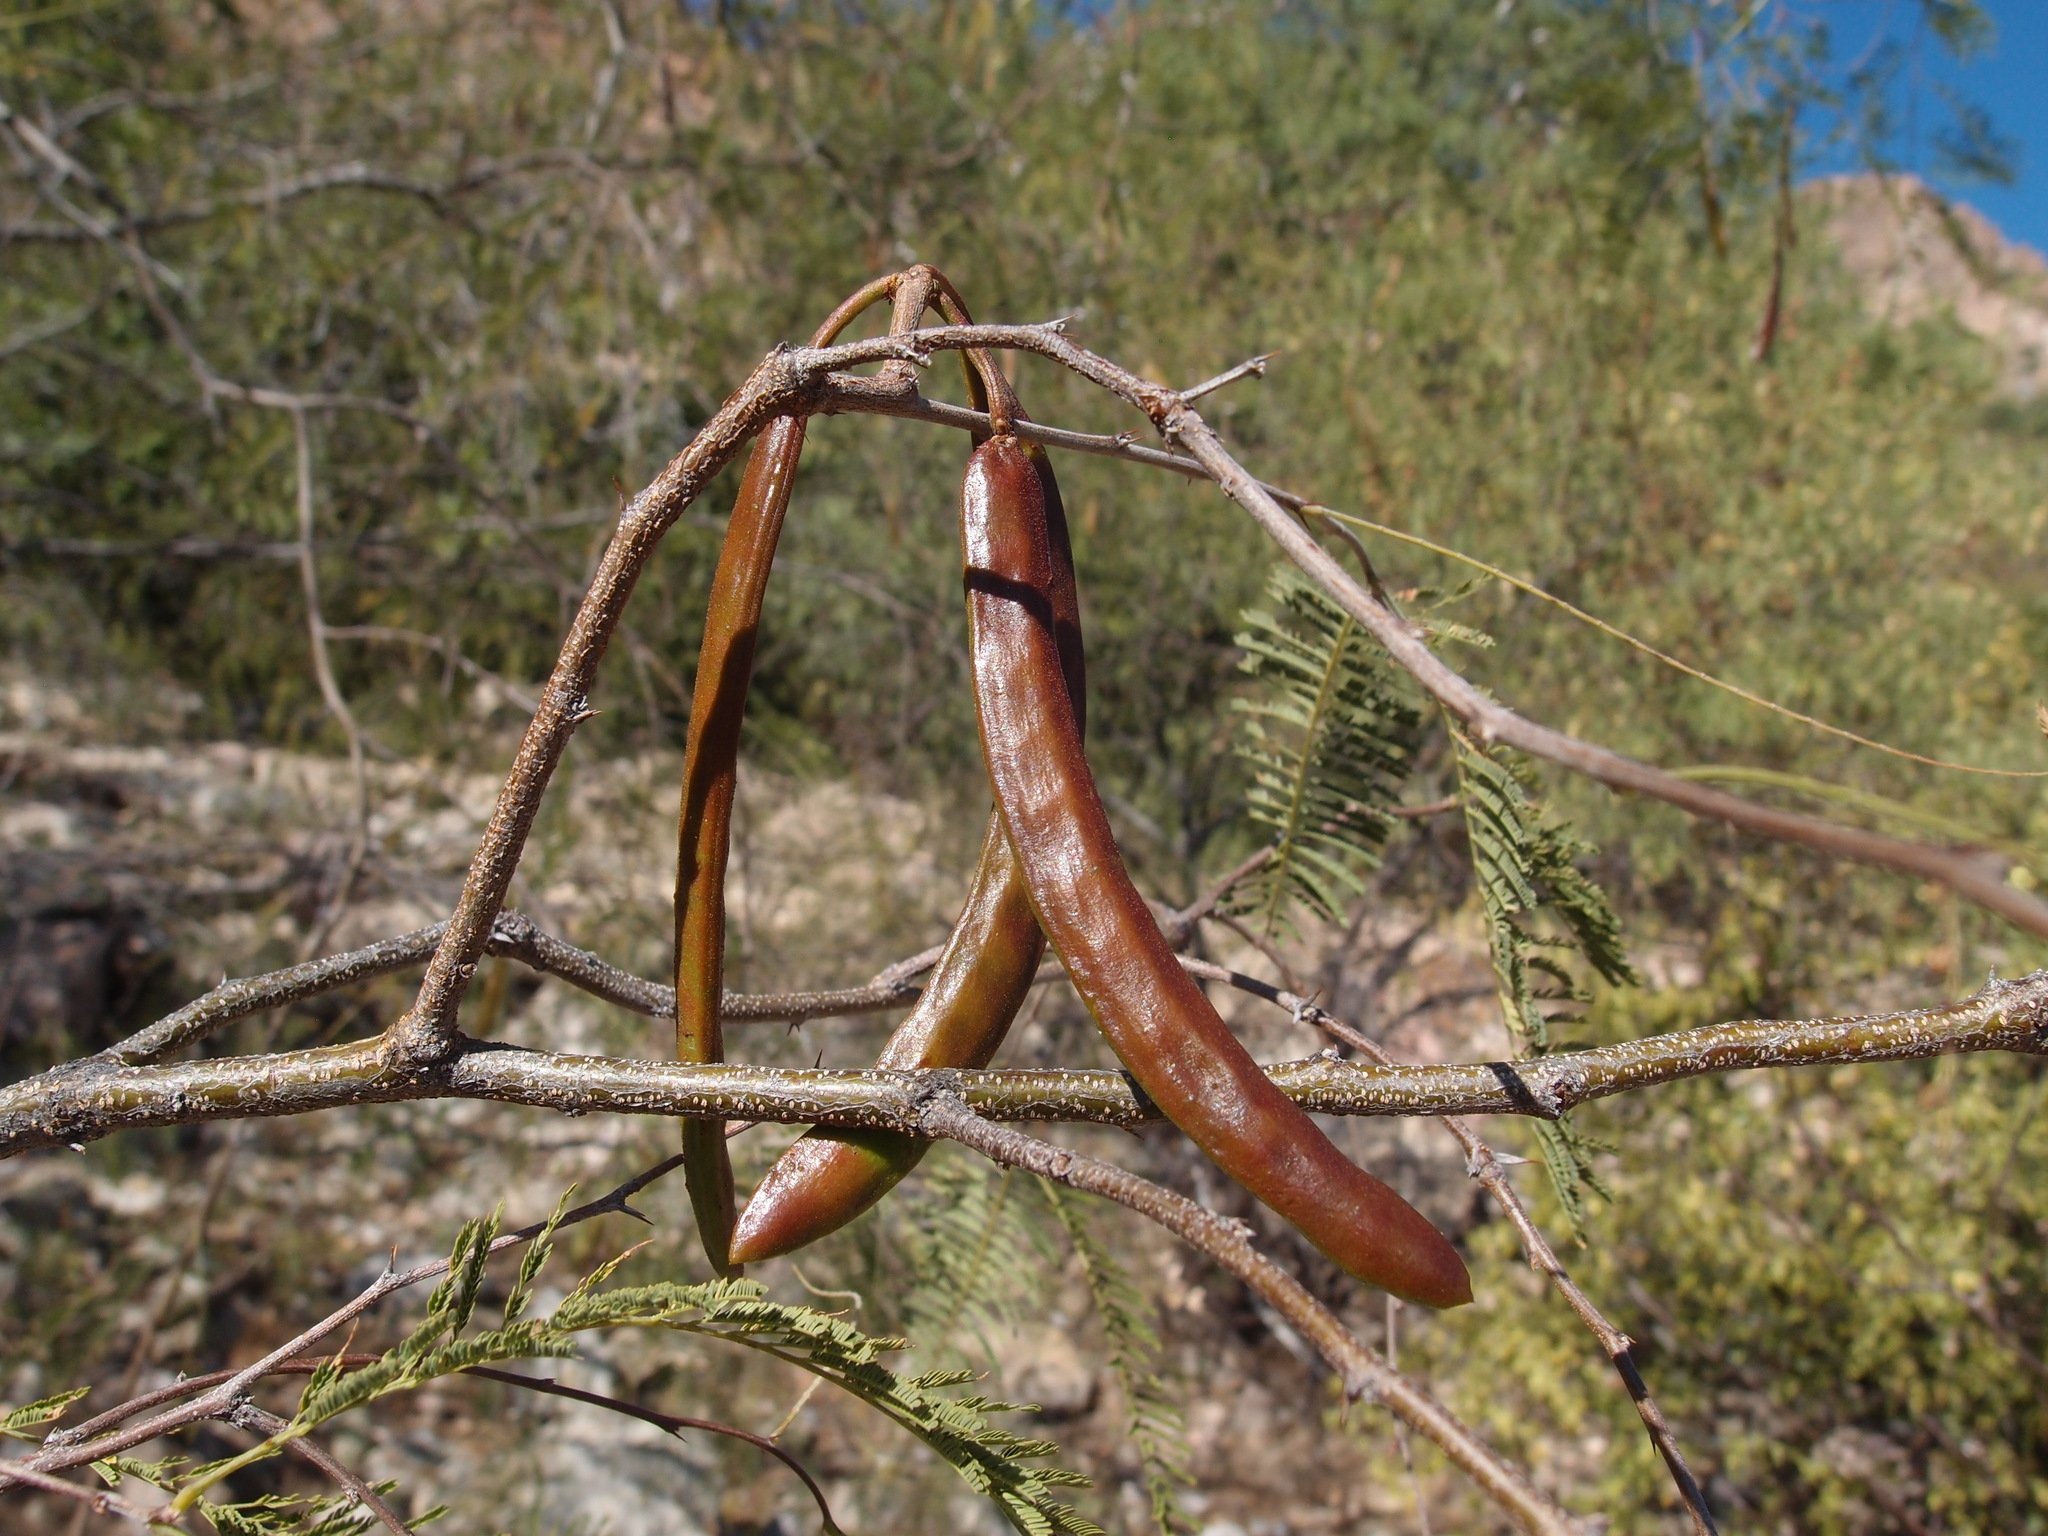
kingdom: Plantae
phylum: Tracheophyta
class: Magnoliopsida
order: Fabales
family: Fabaceae
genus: Vachellia
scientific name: Vachellia campechiana
